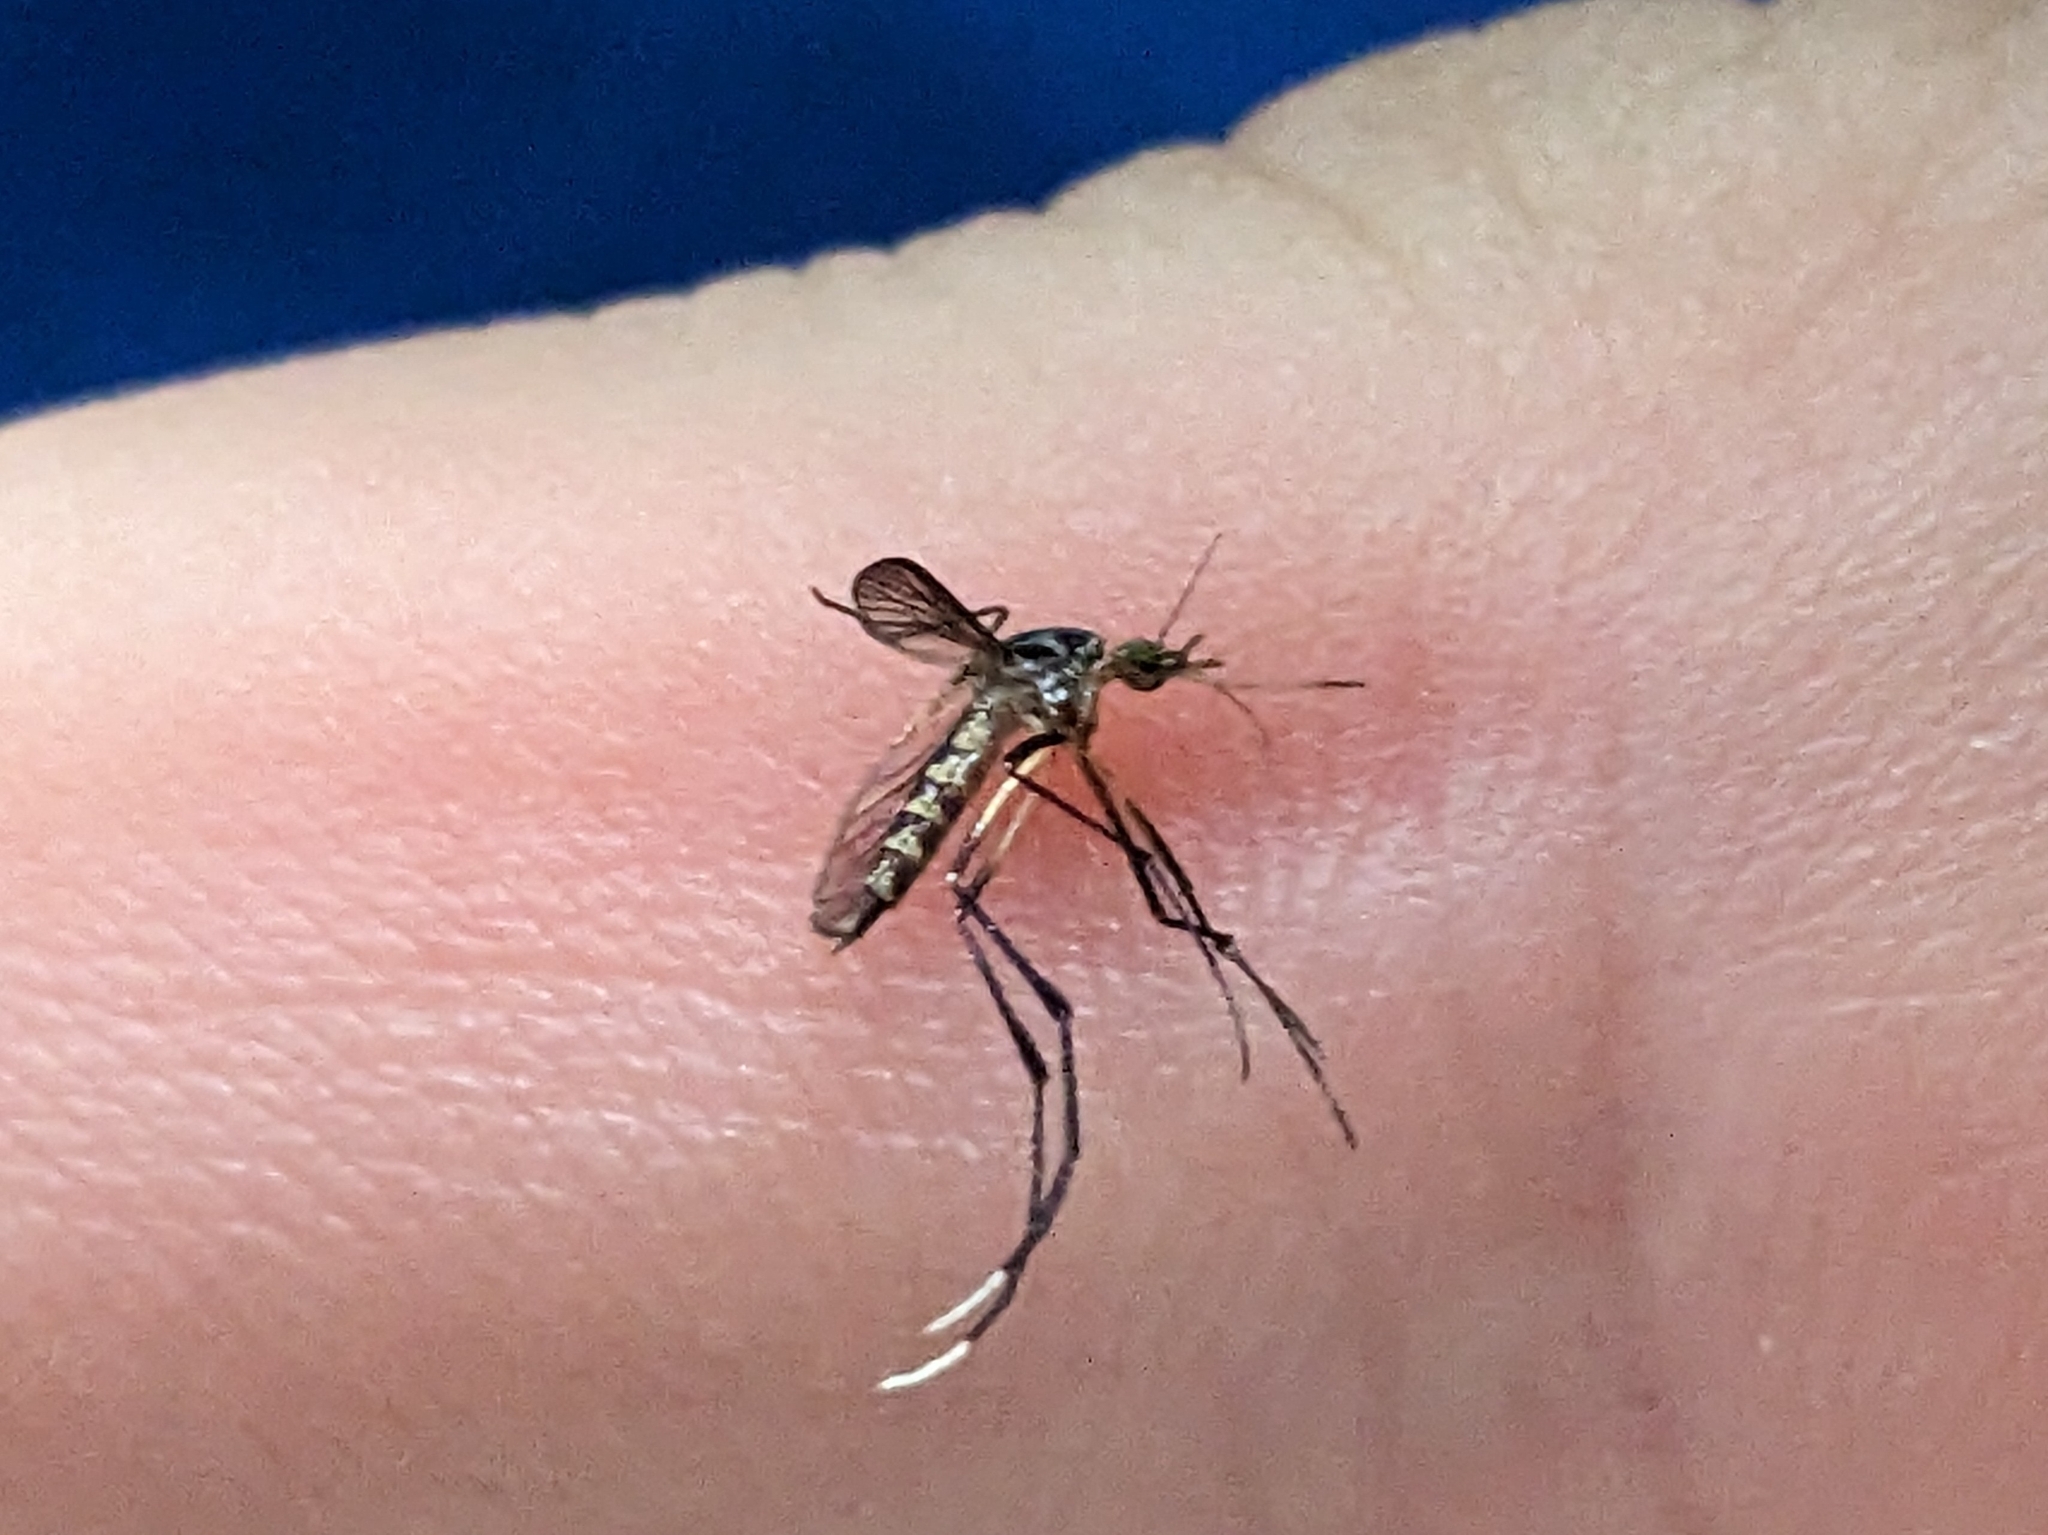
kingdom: Animalia
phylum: Arthropoda
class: Insecta
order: Diptera
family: Culicidae
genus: Psorophora
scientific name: Psorophora ferox
